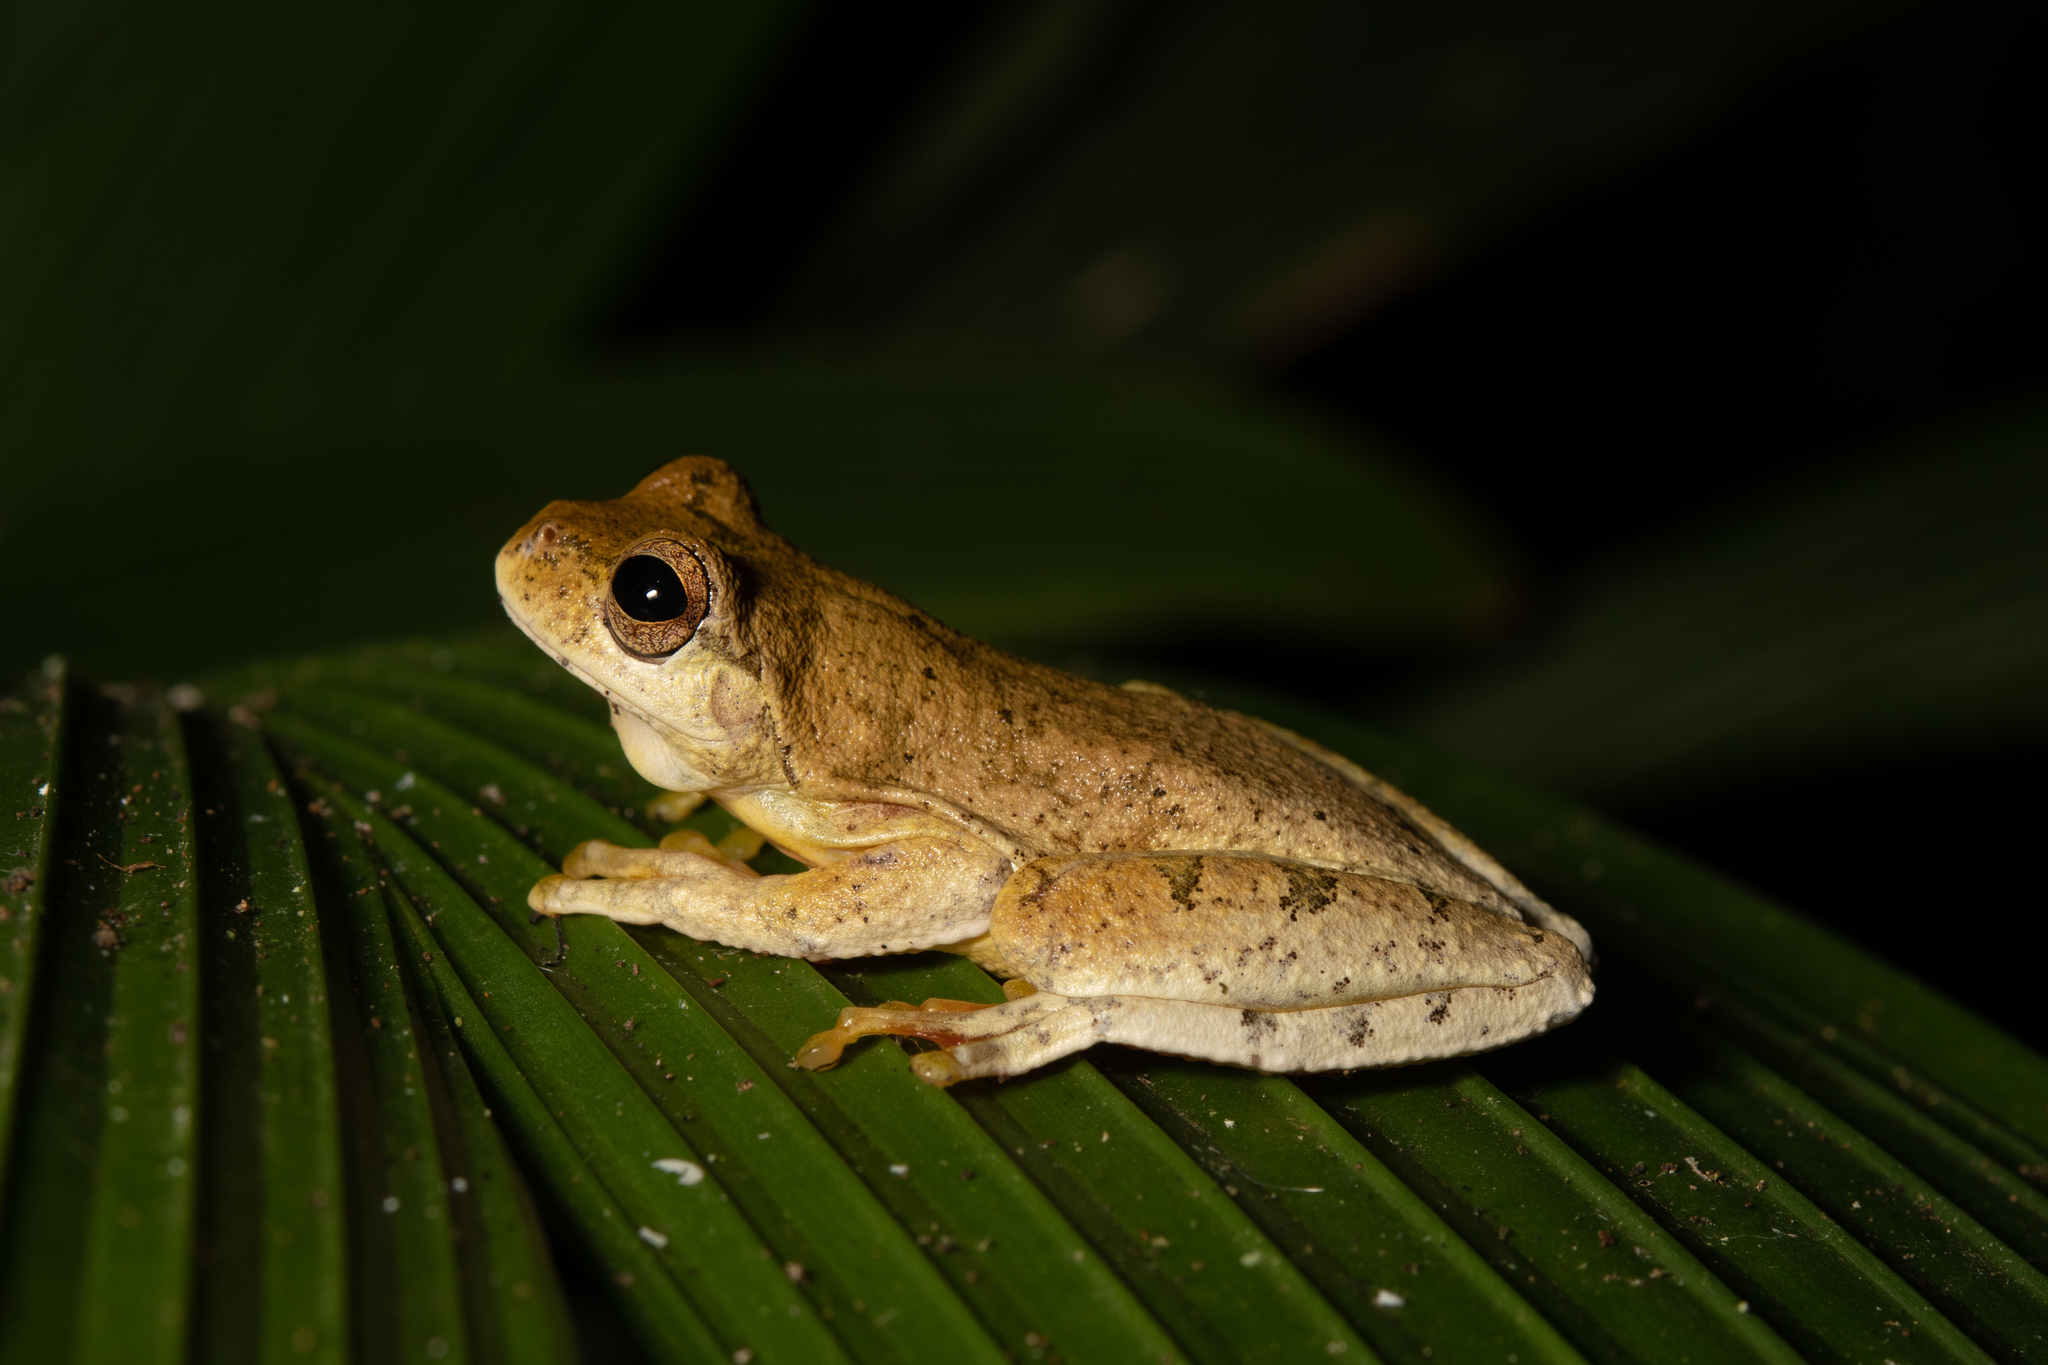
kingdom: Animalia
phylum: Chordata
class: Amphibia
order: Anura
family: Hylidae
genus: Ptychohyla
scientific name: Ptychohyla hypomykter
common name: Copan stream frog
